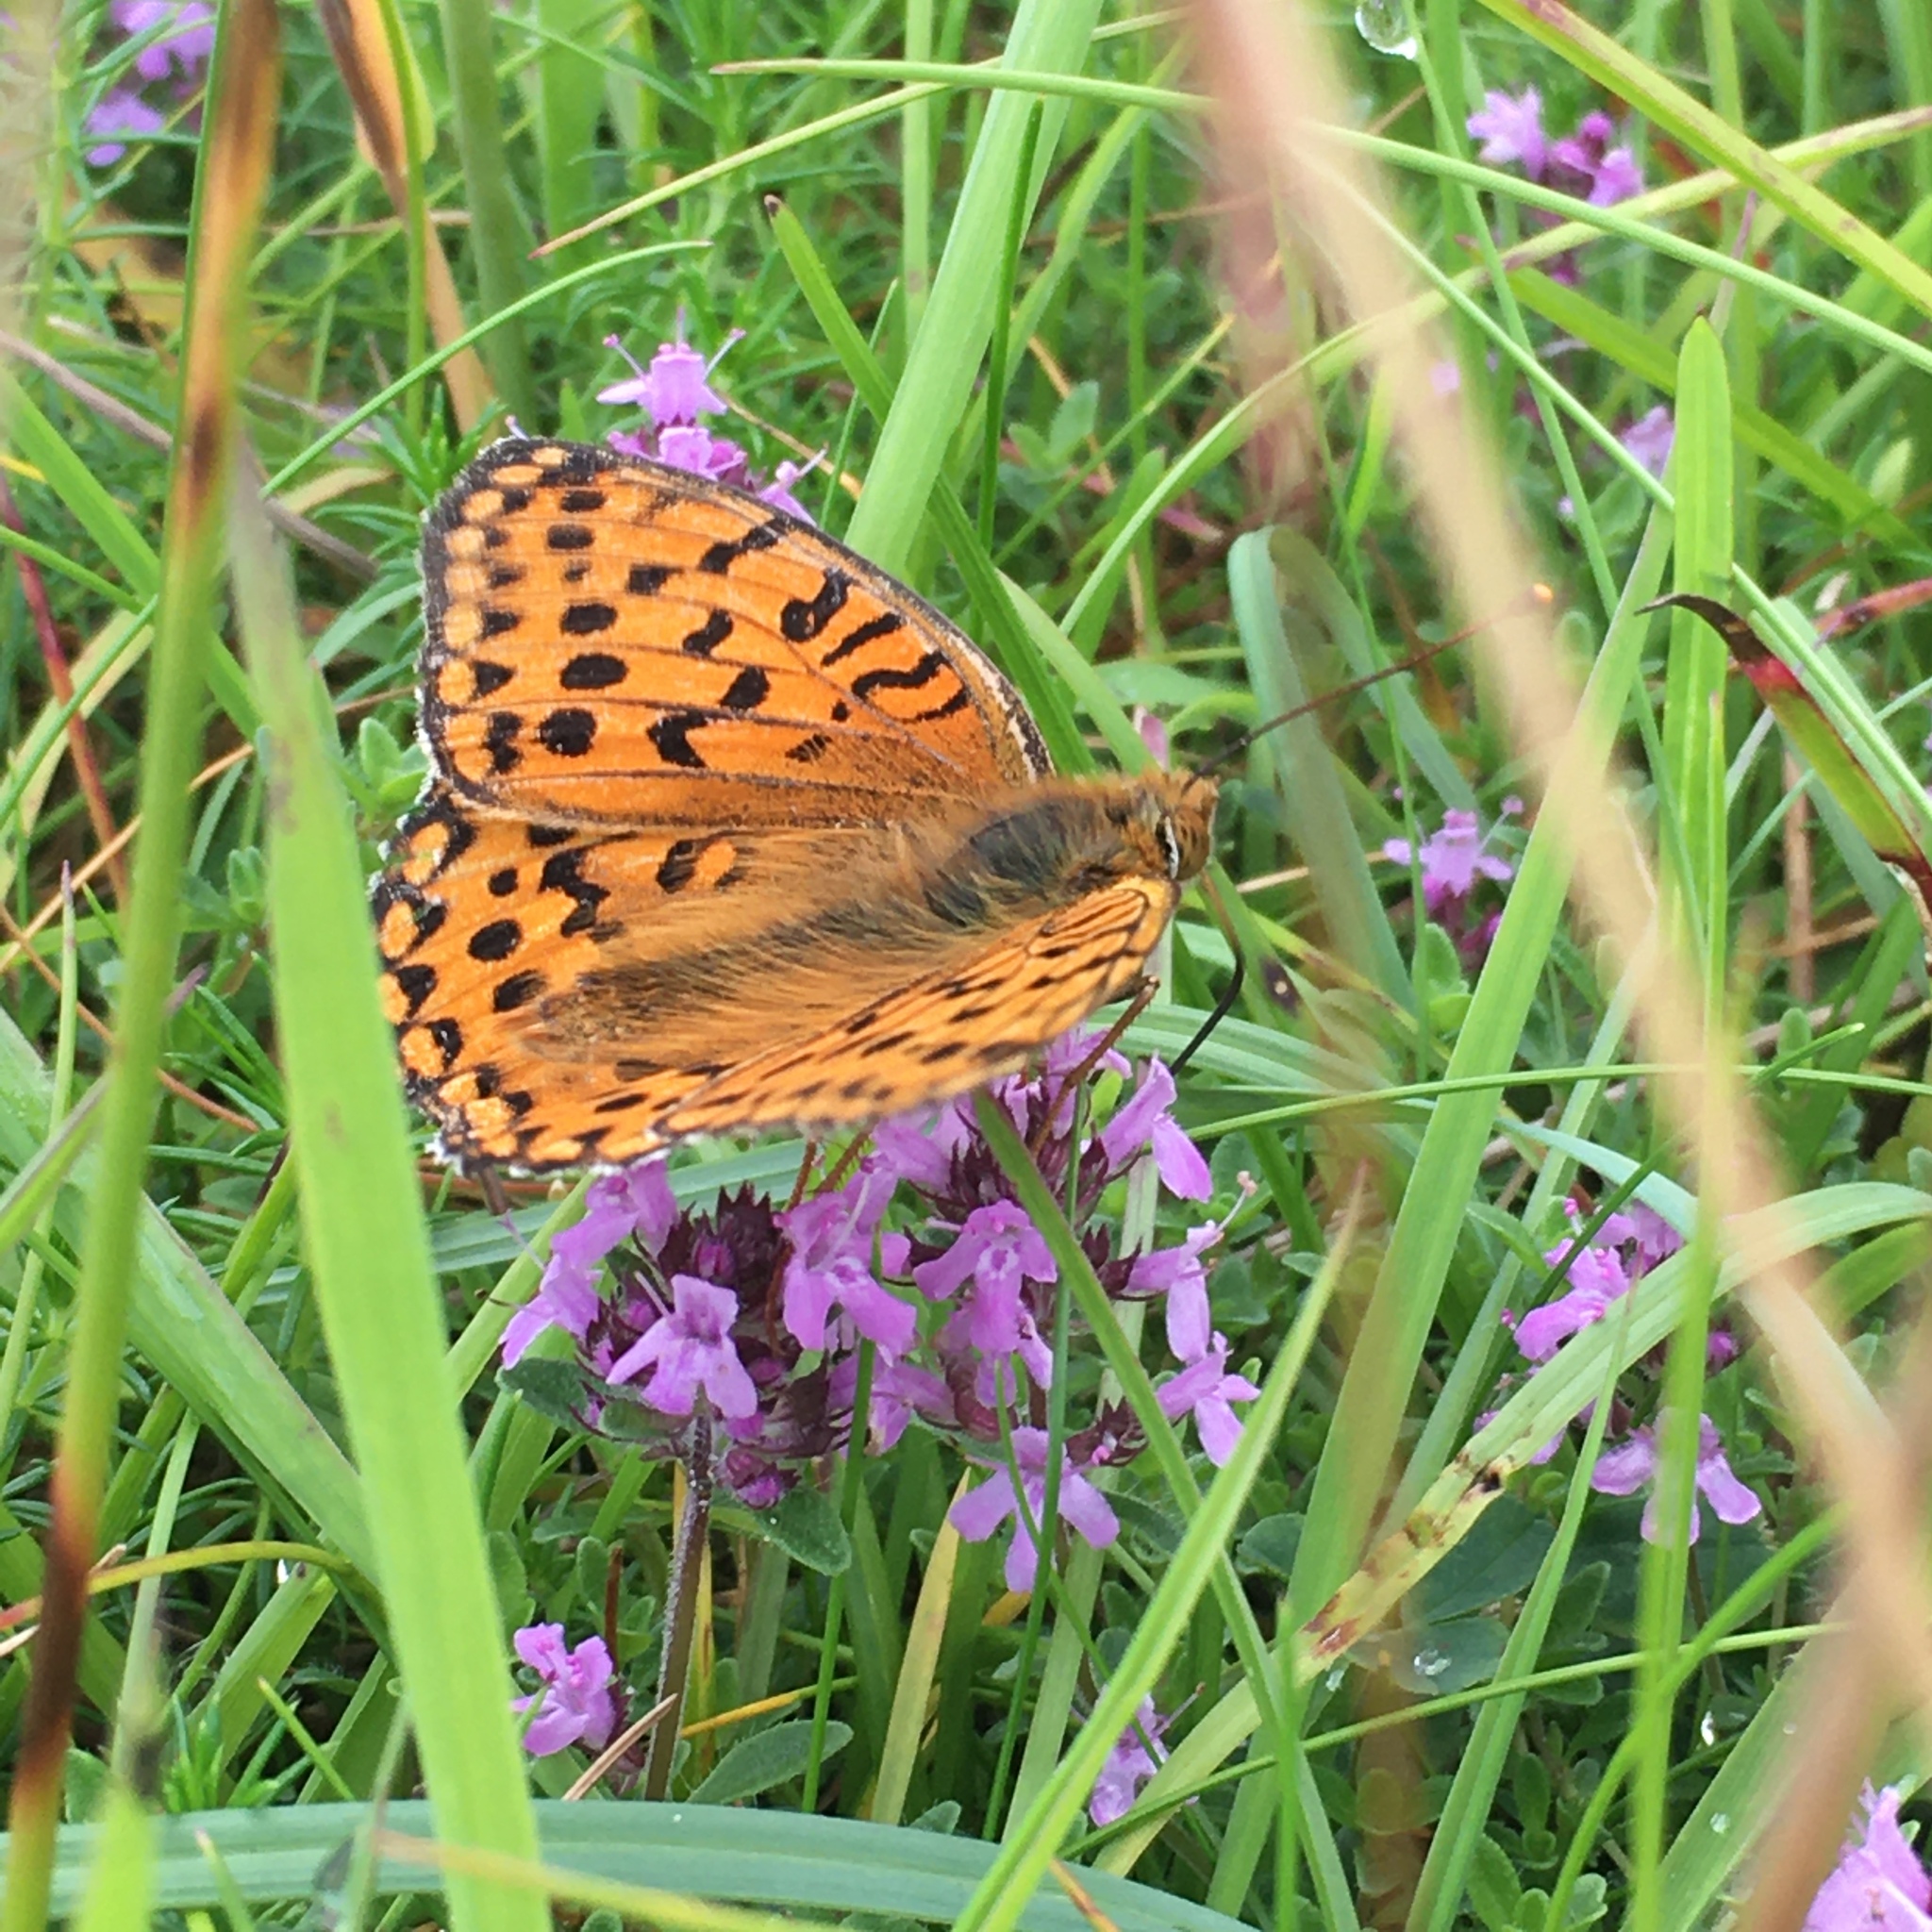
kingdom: Animalia
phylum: Arthropoda
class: Insecta
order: Lepidoptera
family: Nymphalidae
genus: Speyeria
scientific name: Speyeria aglaja
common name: Dark green fritillary
